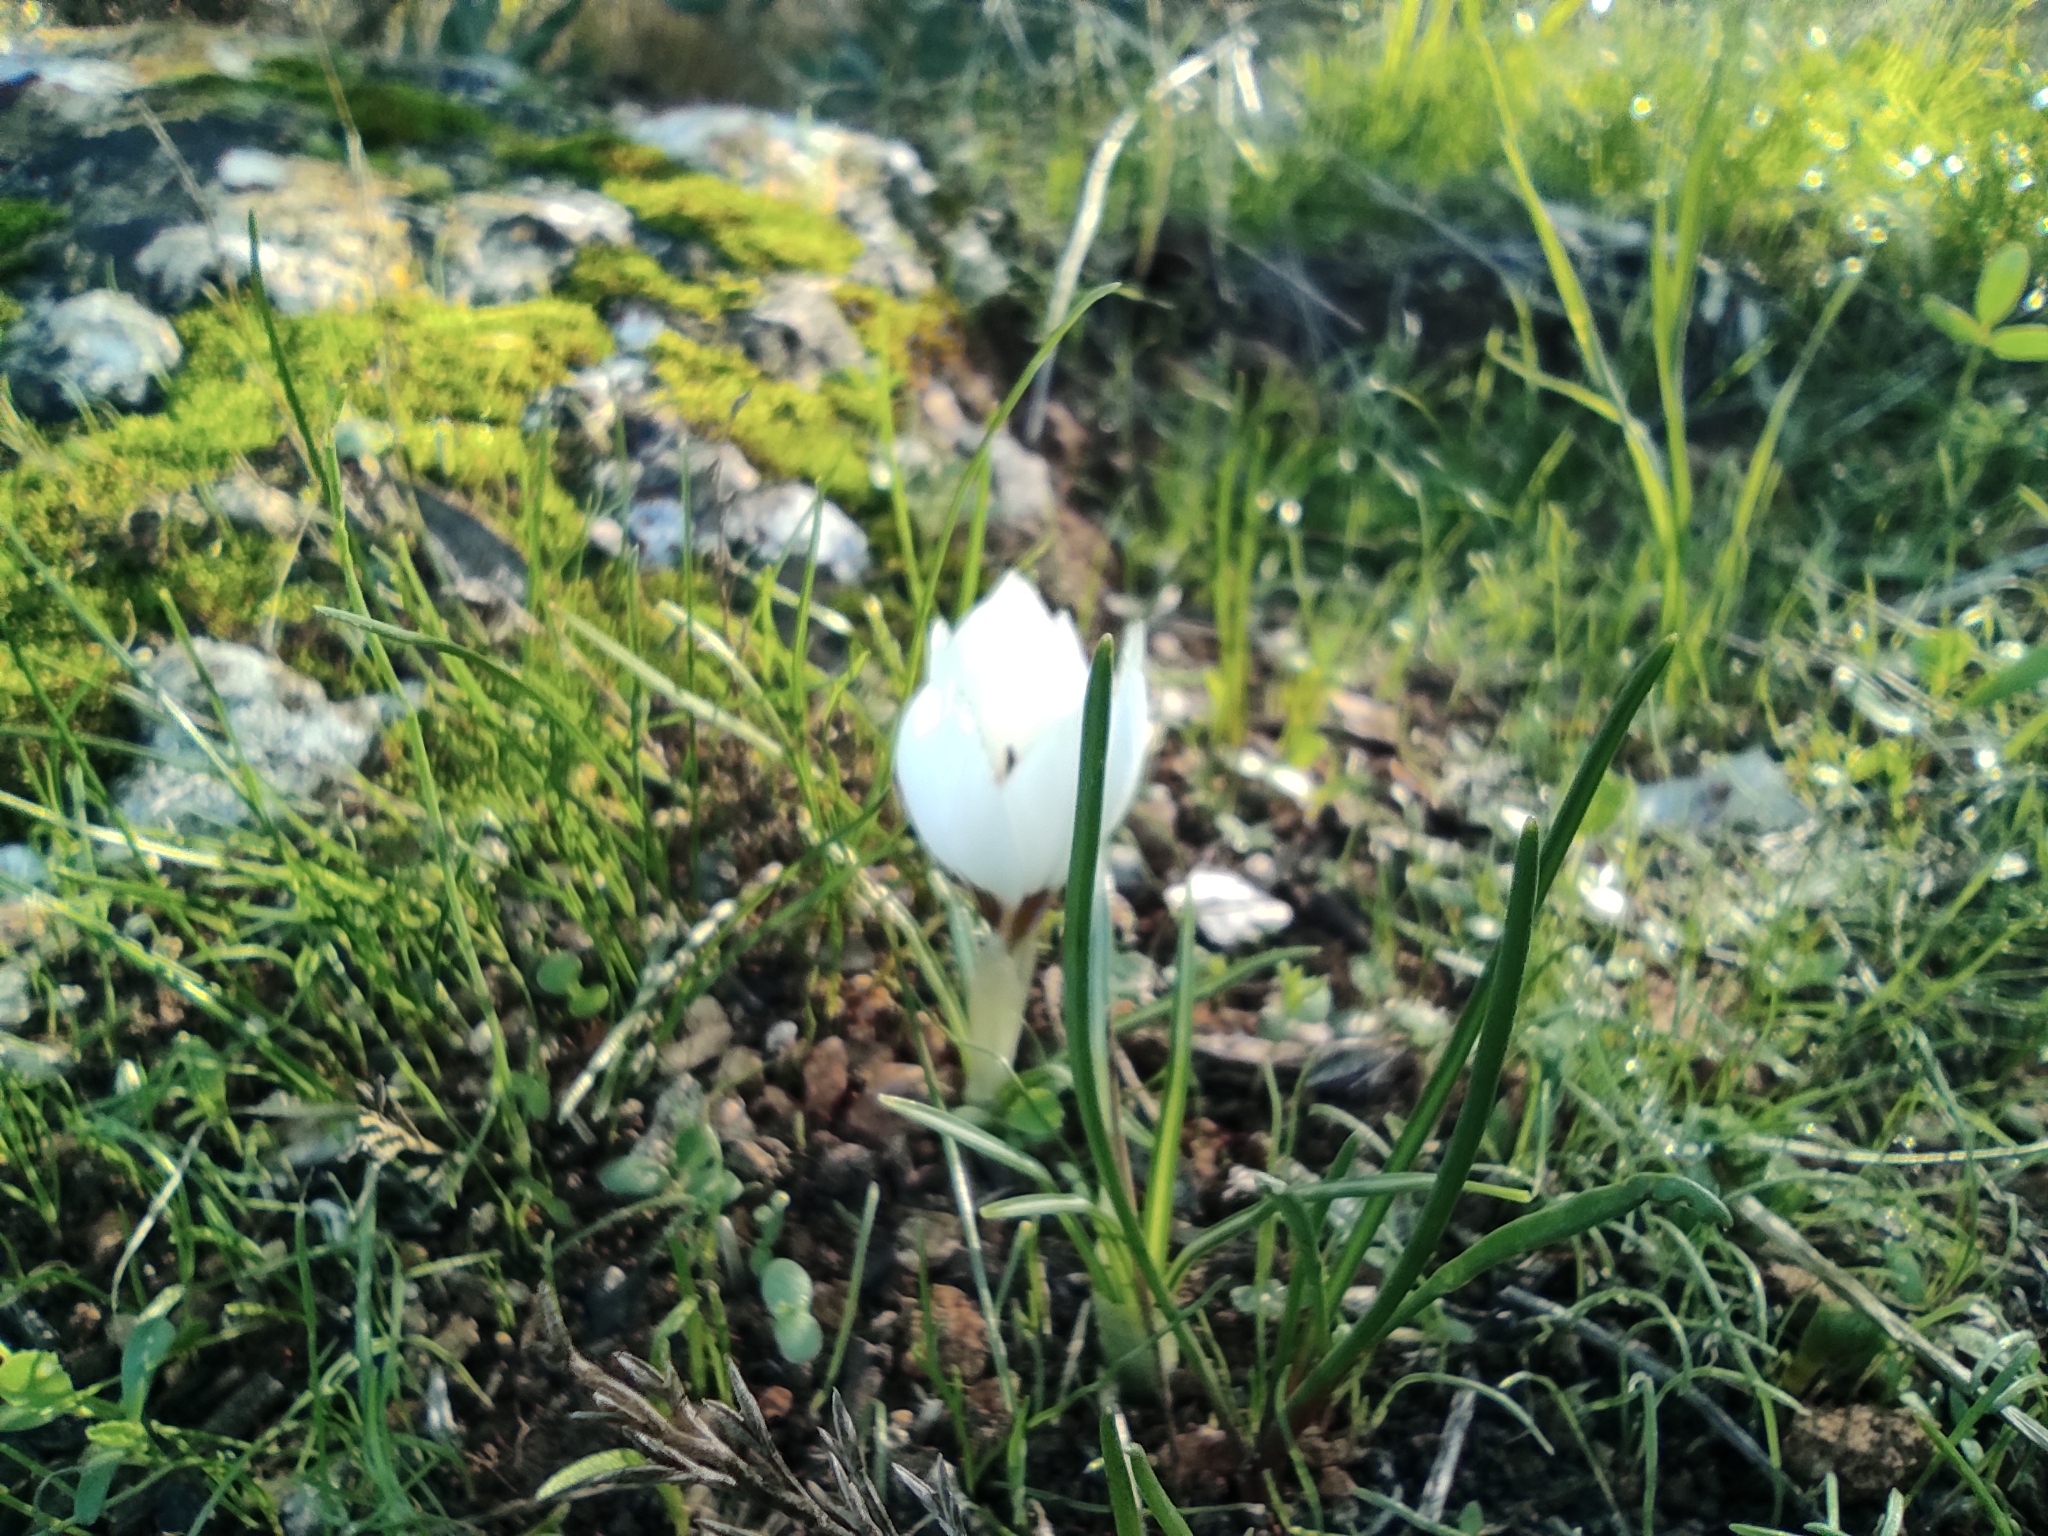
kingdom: Plantae
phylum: Tracheophyta
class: Liliopsida
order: Asparagales
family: Iridaceae
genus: Crocus
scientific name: Crocus hyemalis
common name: Winter crocus
